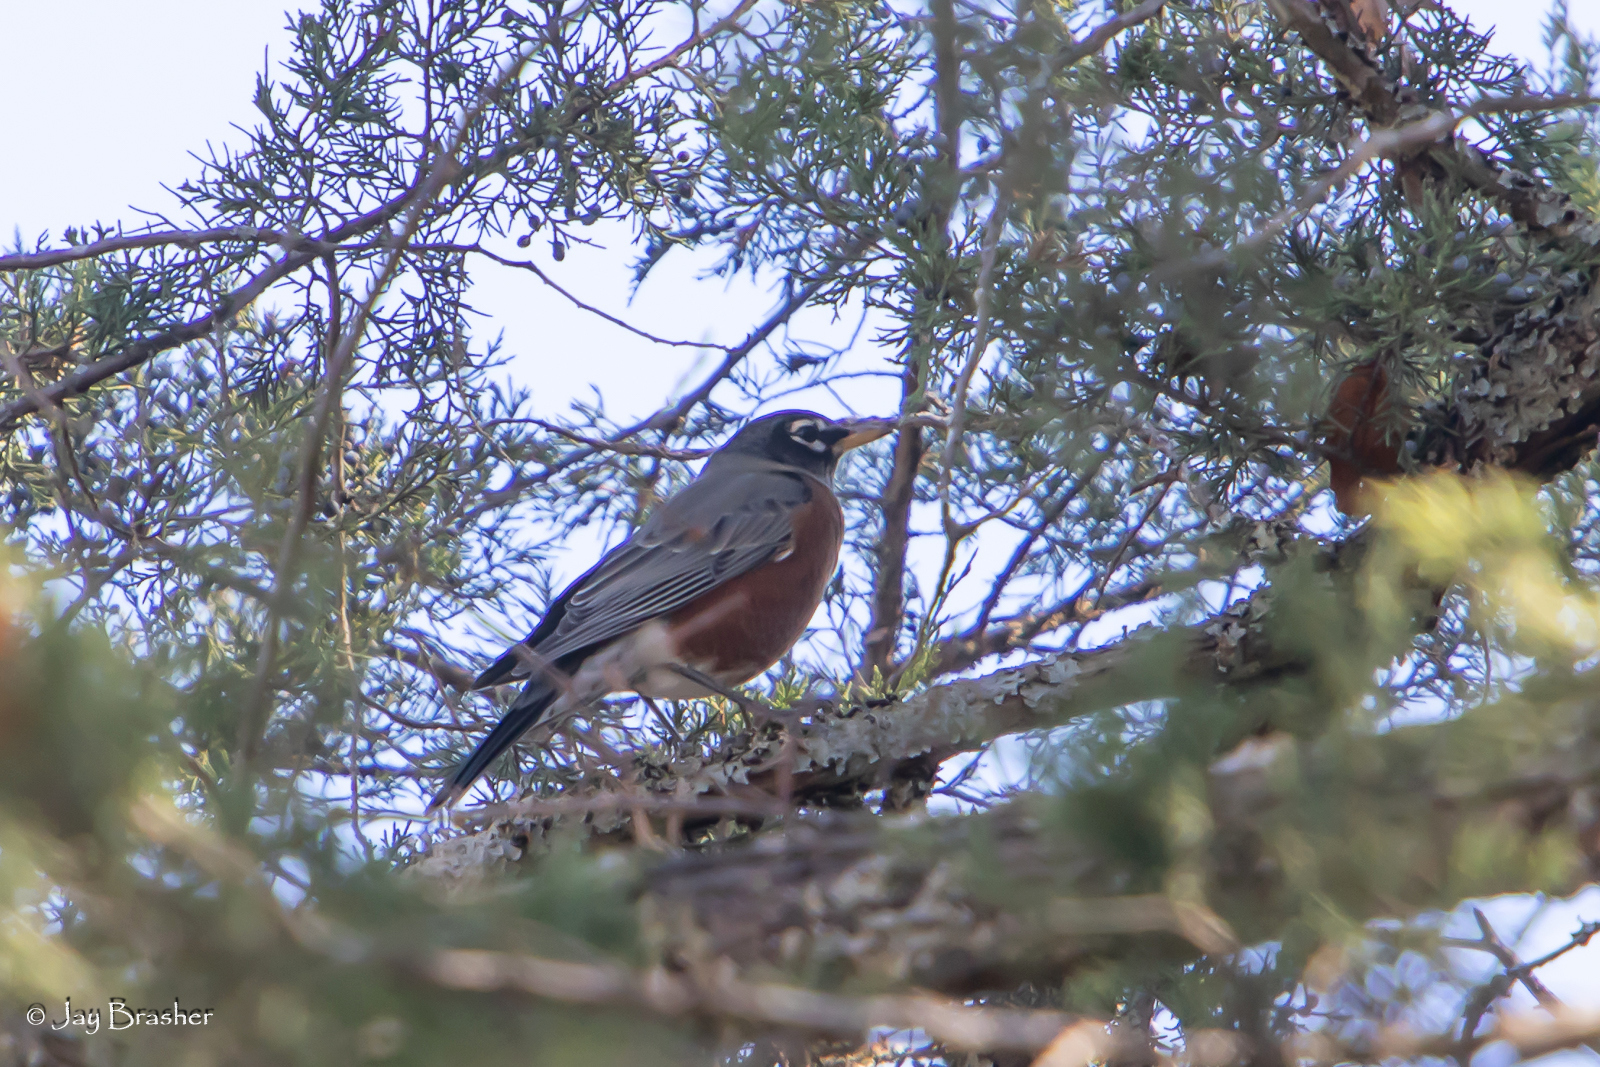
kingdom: Animalia
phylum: Chordata
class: Aves
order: Passeriformes
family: Turdidae
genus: Turdus
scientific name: Turdus migratorius
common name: American robin
